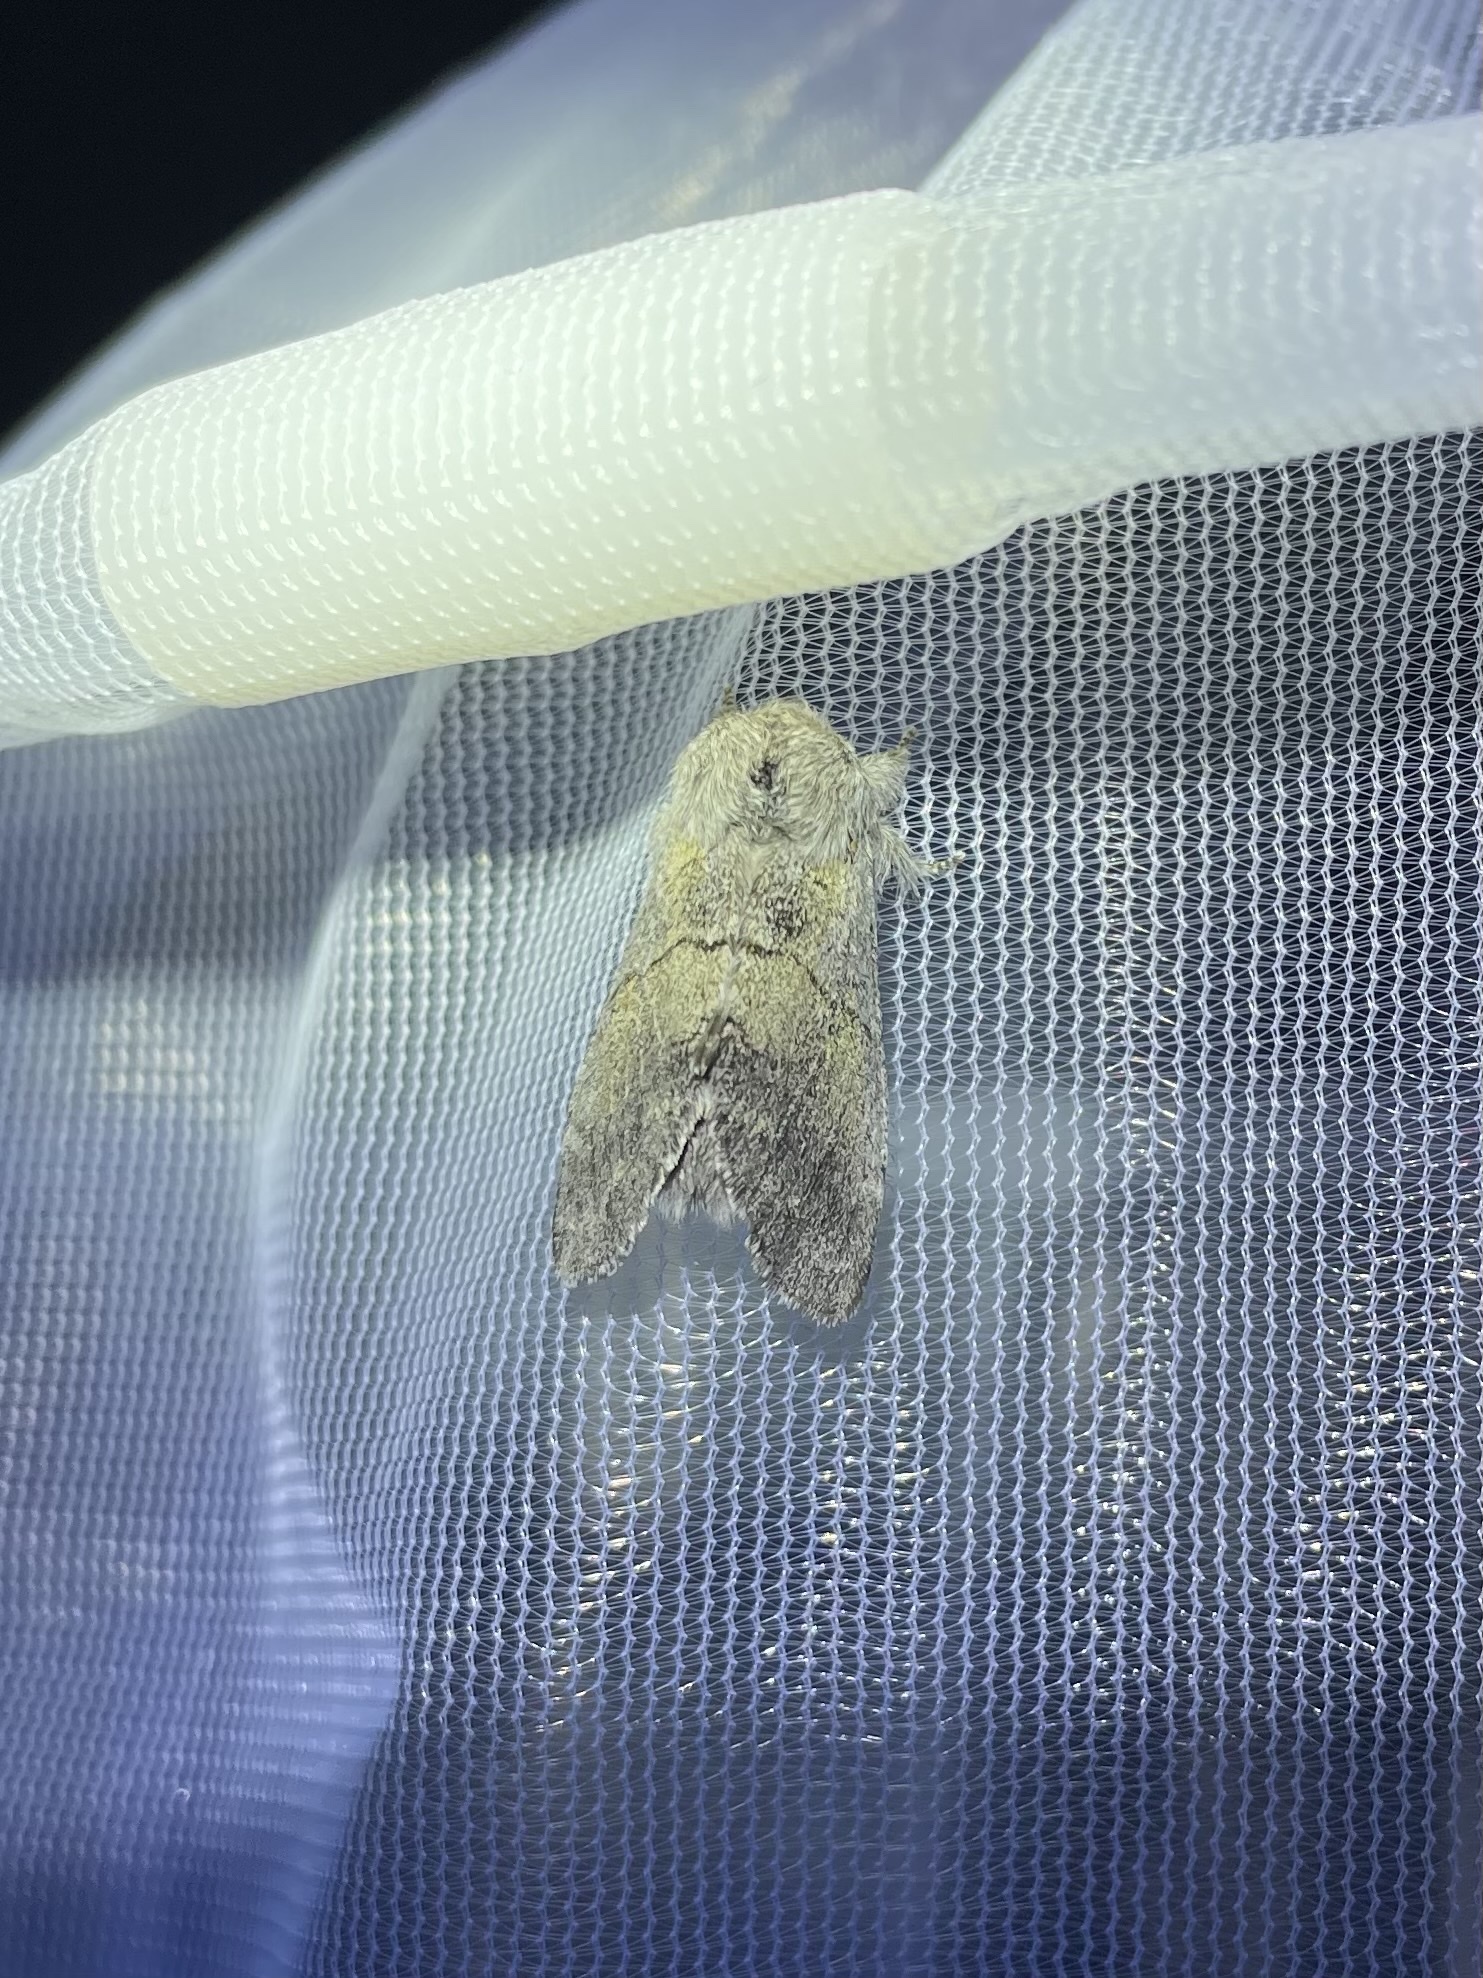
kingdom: Animalia
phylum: Arthropoda
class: Insecta
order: Lepidoptera
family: Notodontidae
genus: Gluphisia
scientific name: Gluphisia lintneri
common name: Lintner's gluphisia moth
